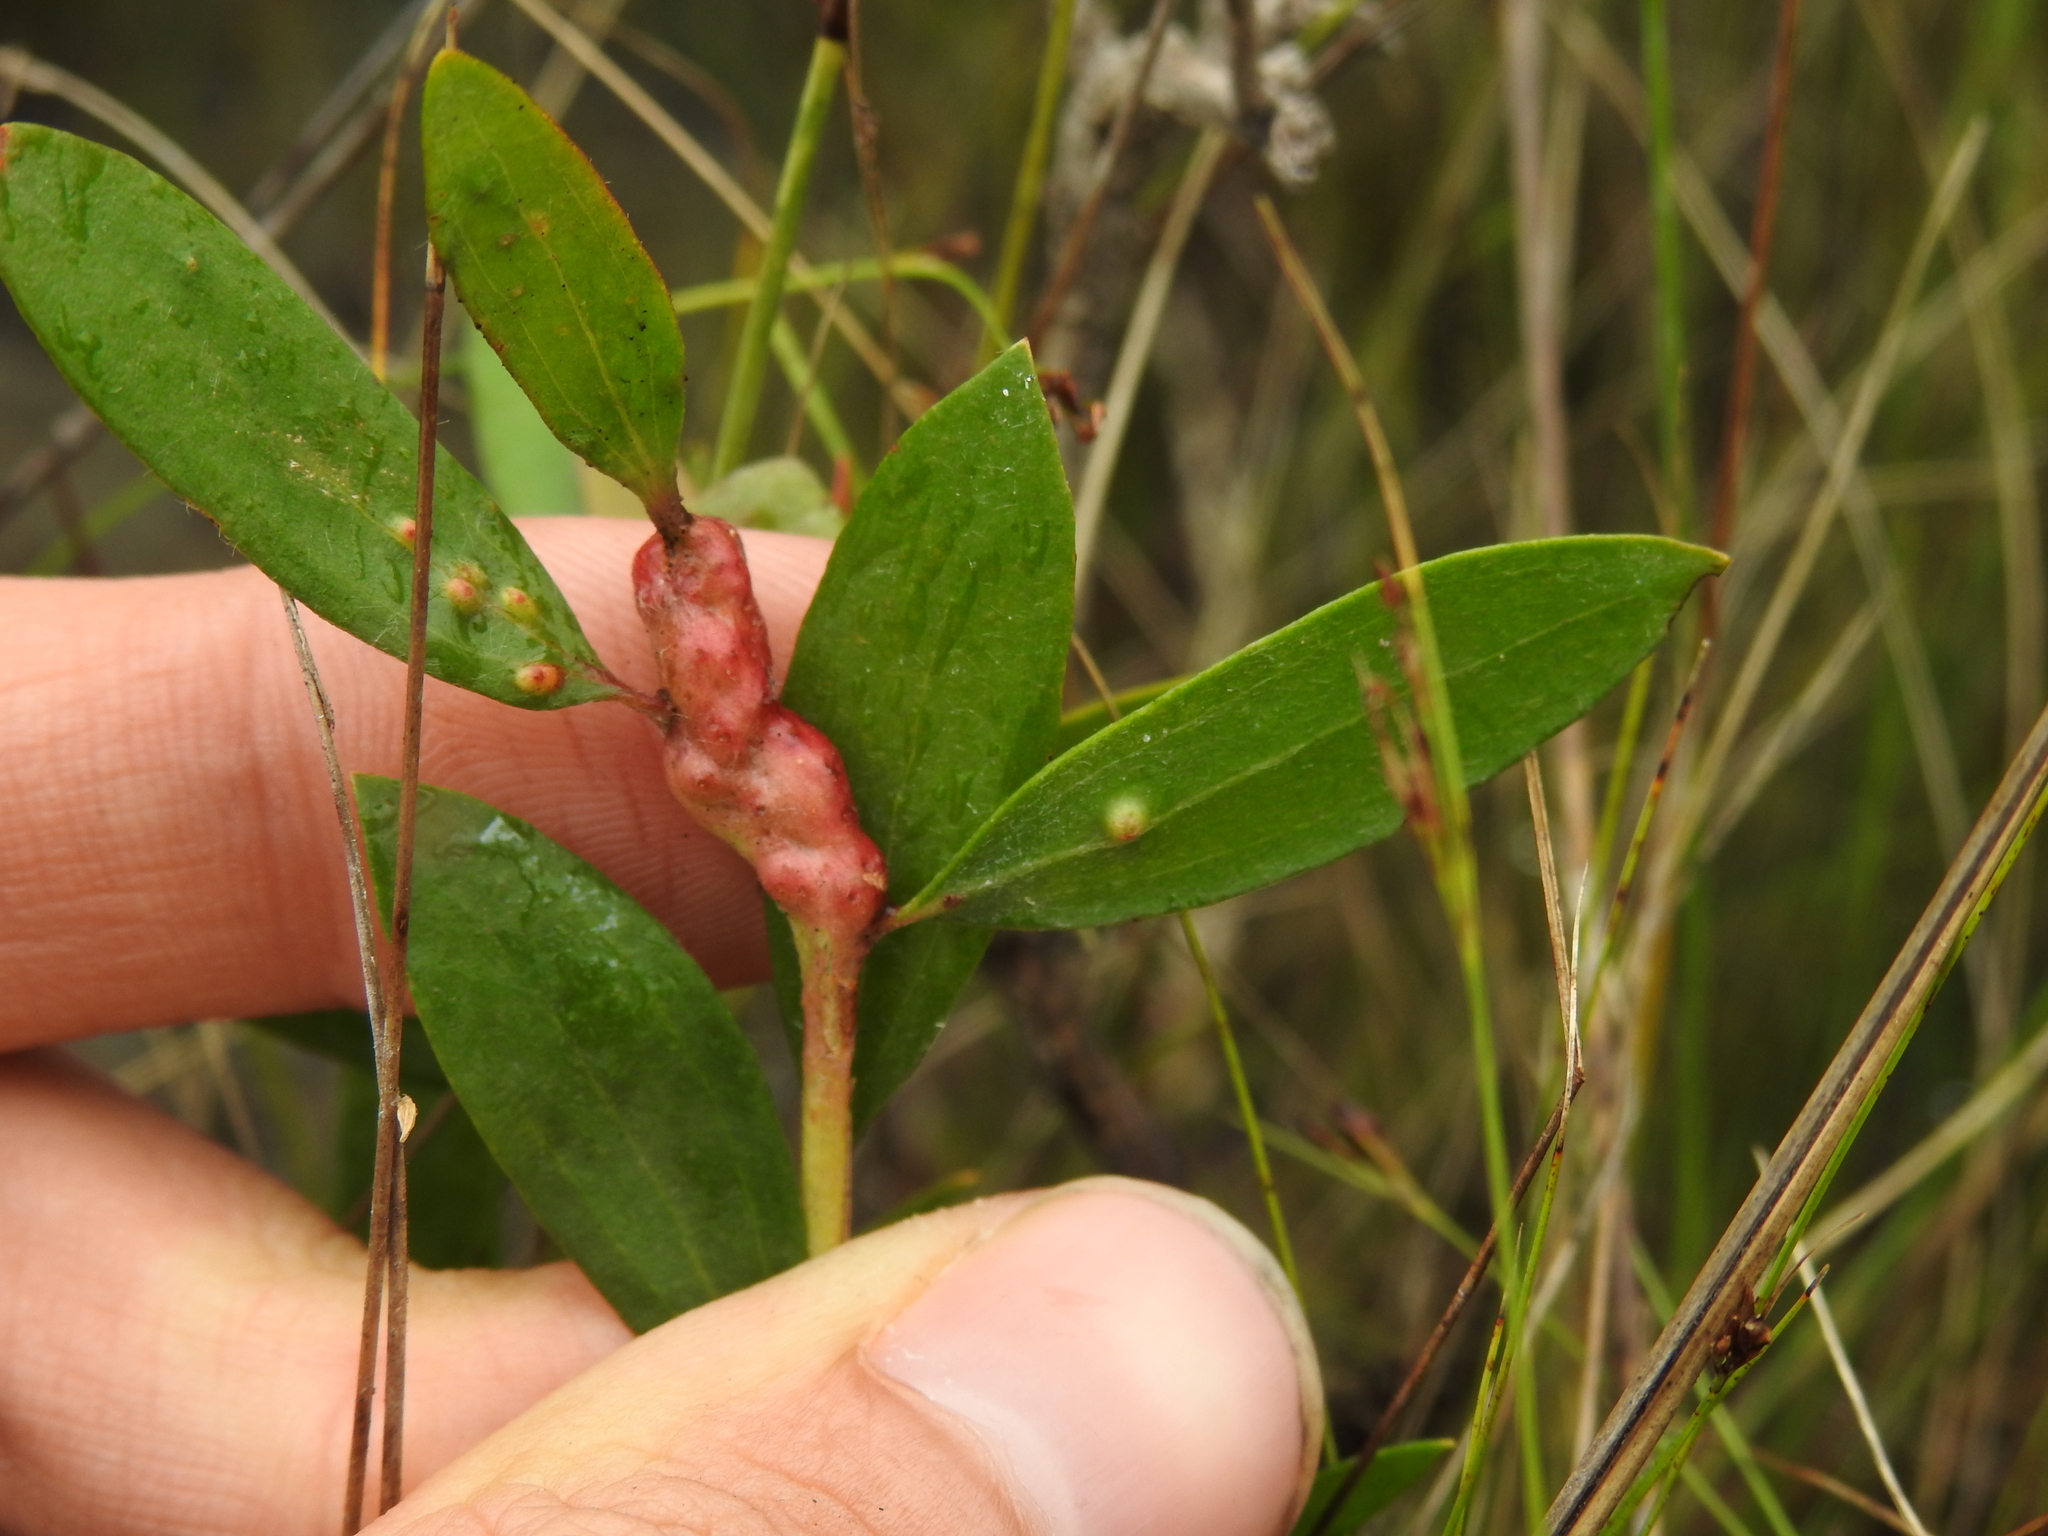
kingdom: Animalia
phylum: Arthropoda
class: Insecta
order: Diptera
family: Cecidomyiidae
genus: Lophodiplosis
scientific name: Lophodiplosis trifida
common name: Melaleuca gall midge
